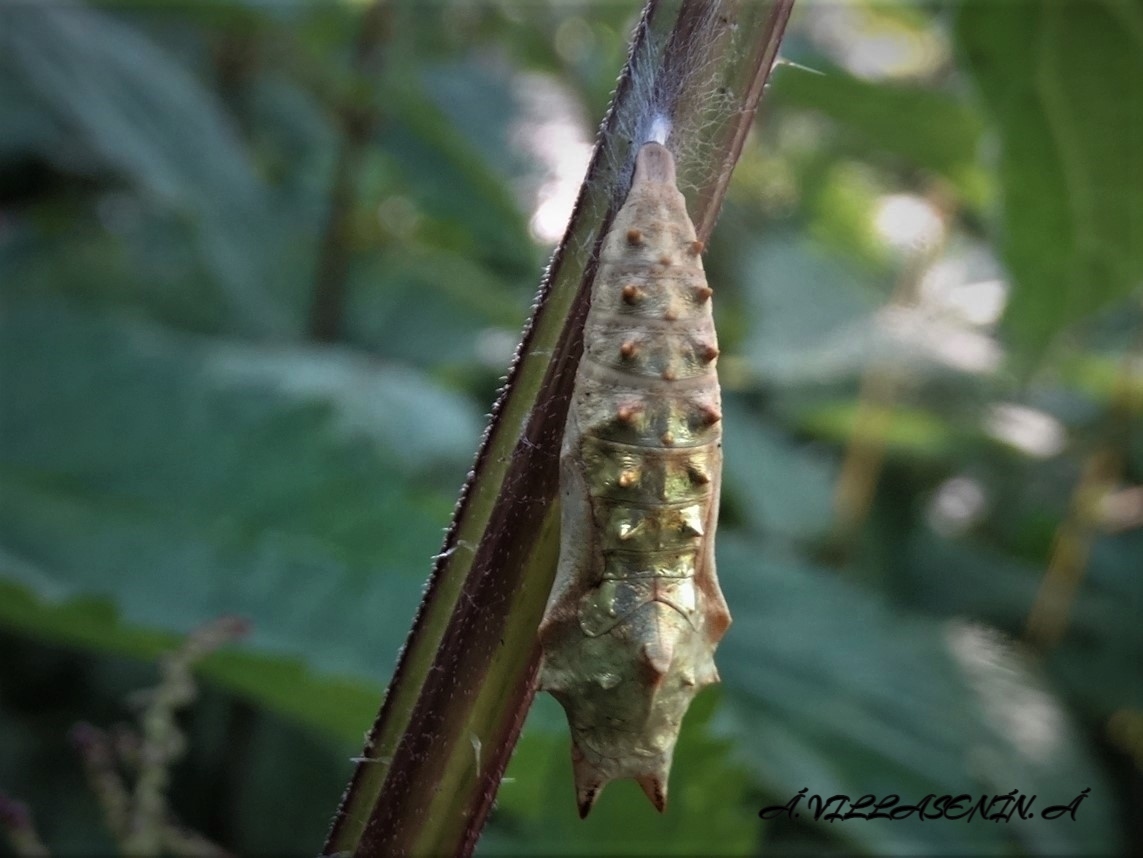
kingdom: Animalia
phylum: Arthropoda
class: Insecta
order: Lepidoptera
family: Nymphalidae
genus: Aglais
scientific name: Aglais urticae
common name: Small tortoiseshell
